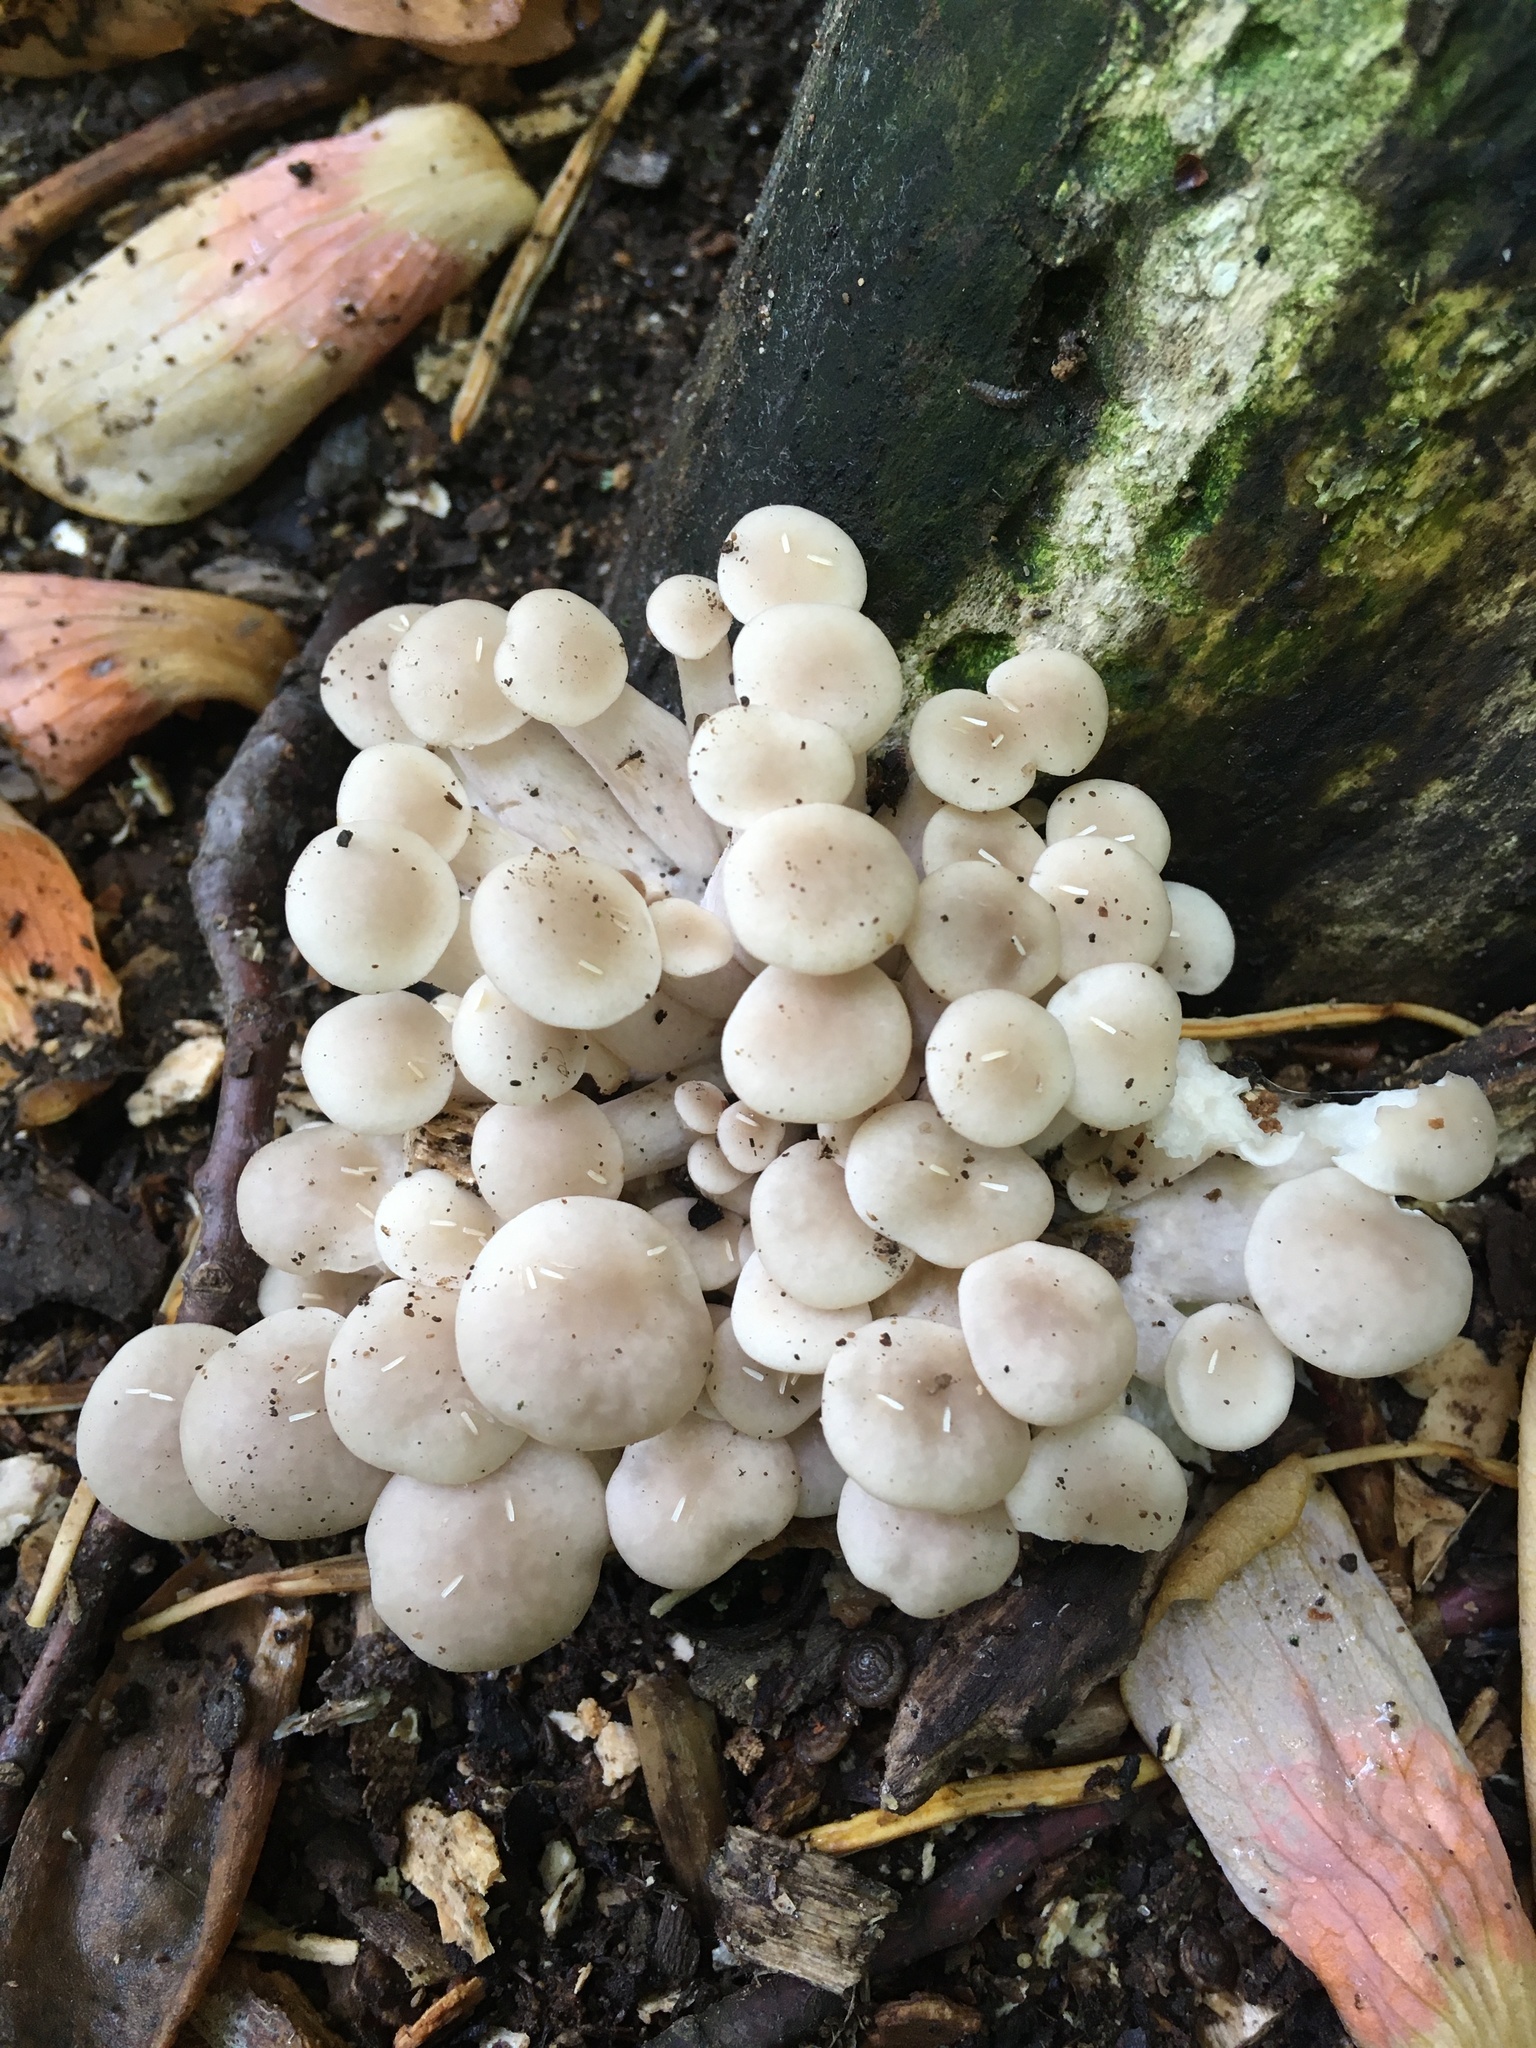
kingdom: Fungi
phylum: Basidiomycota
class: Agaricomycetes
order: Agaricales
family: Pleurotaceae
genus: Pleurotus
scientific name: Pleurotus pulmonarius
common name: Pale oyster
